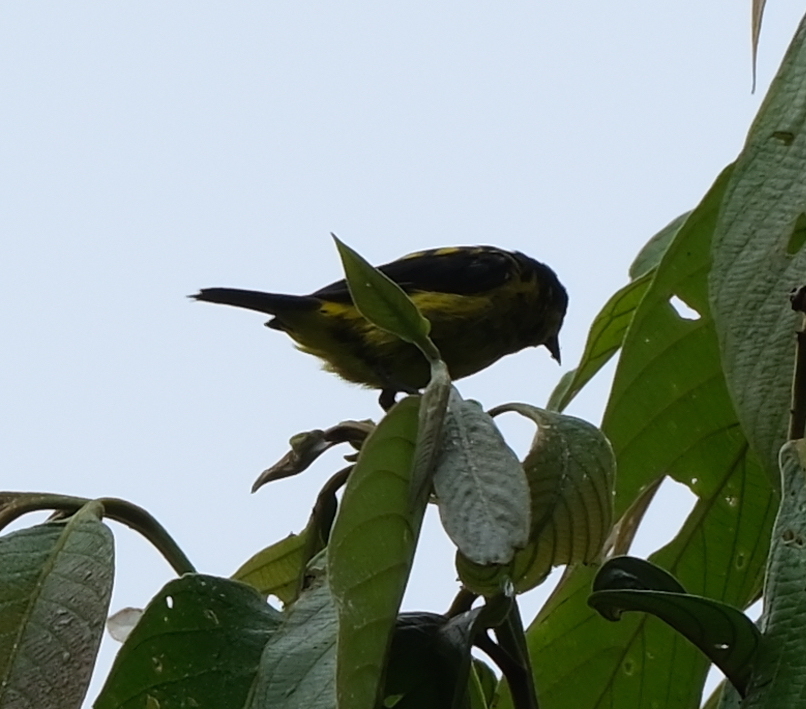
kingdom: Animalia
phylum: Chordata
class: Aves
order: Passeriformes
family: Thraupidae
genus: Dacnis
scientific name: Dacnis flaviventer
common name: Yellow-bellied dacnis
